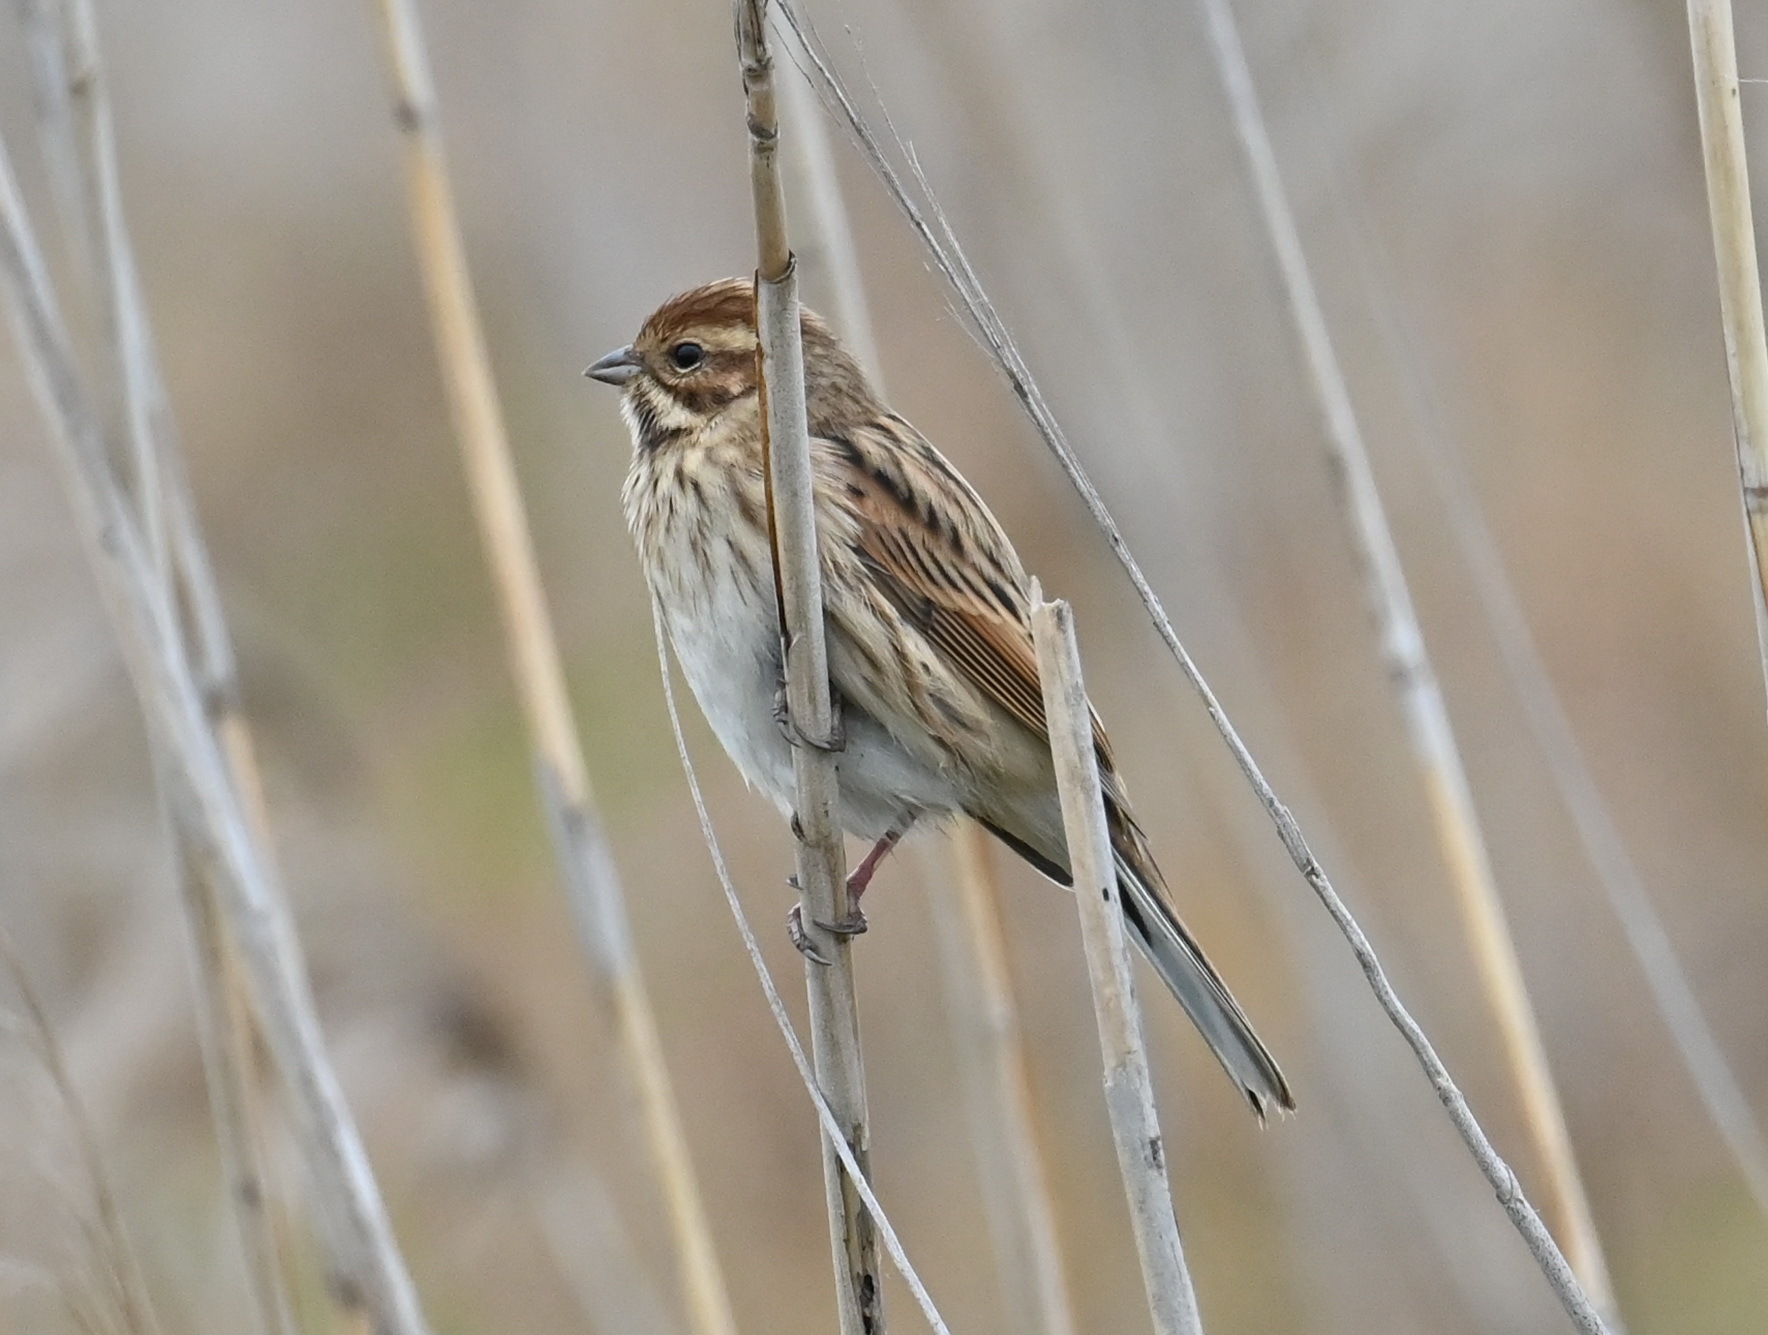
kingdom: Animalia
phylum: Chordata
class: Aves
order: Passeriformes
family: Emberizidae
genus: Emberiza
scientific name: Emberiza schoeniclus
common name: Reed bunting
